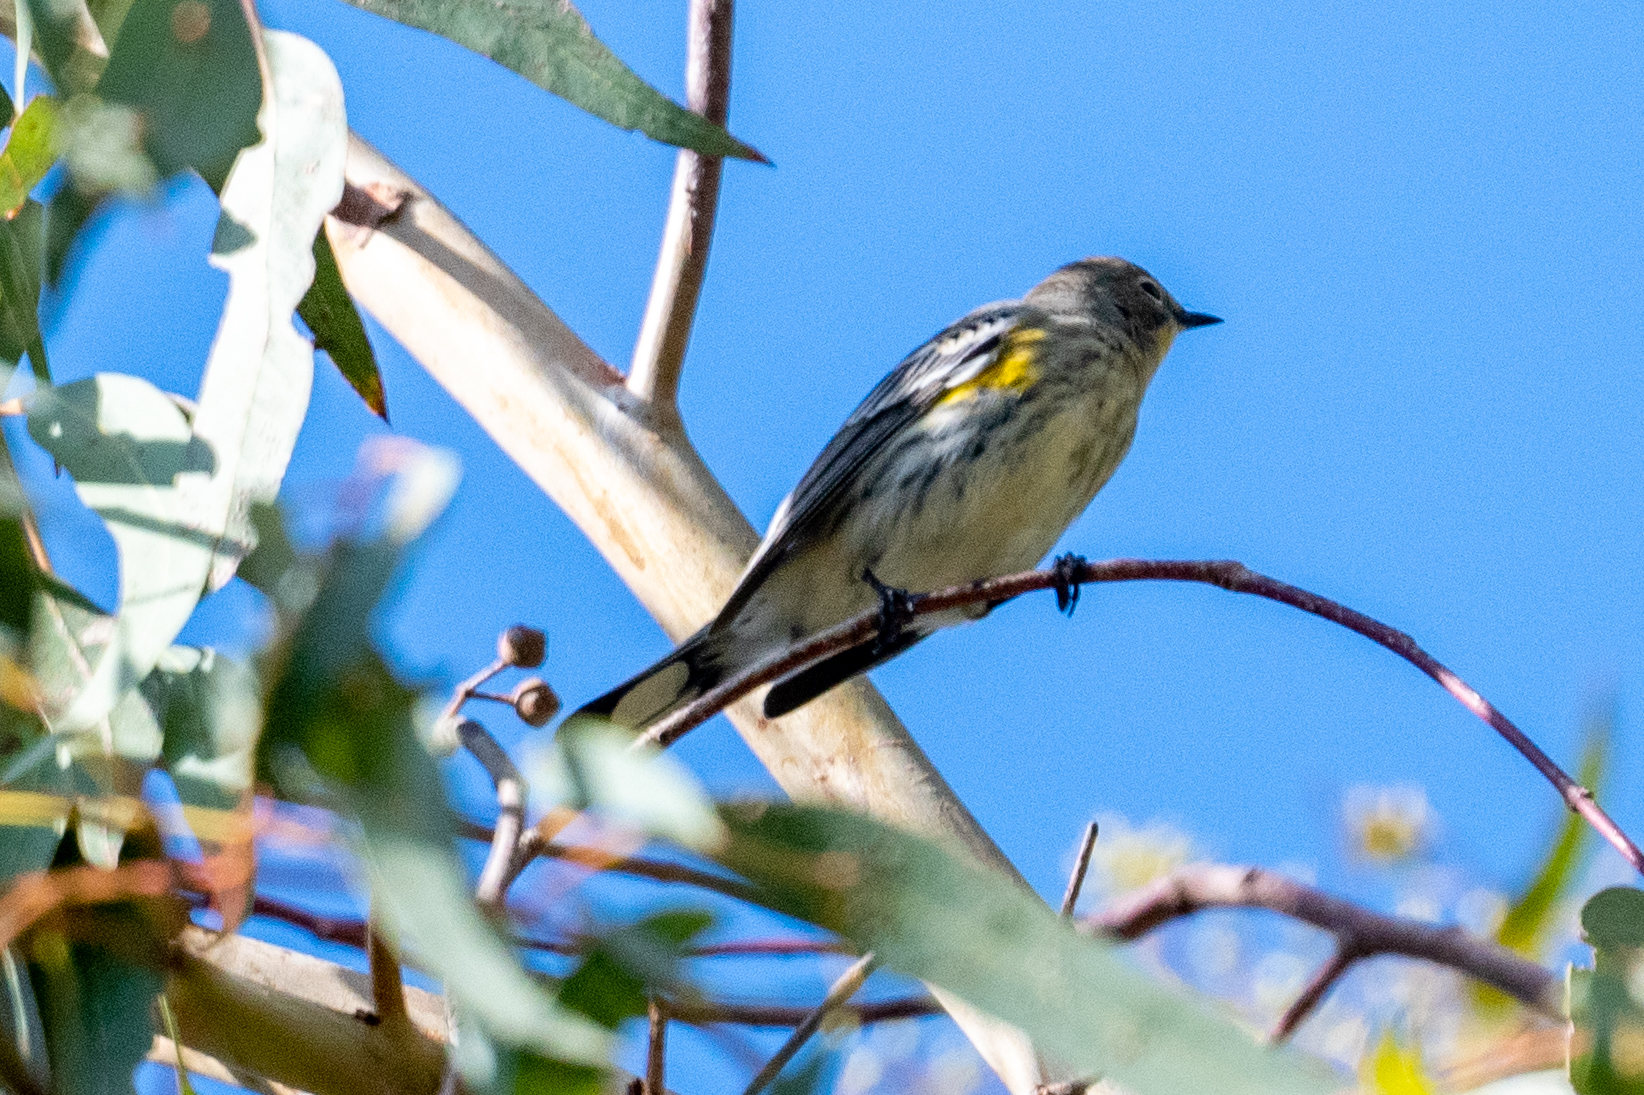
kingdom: Animalia
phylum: Chordata
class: Aves
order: Passeriformes
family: Parulidae
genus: Setophaga
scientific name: Setophaga coronata
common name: Myrtle warbler
